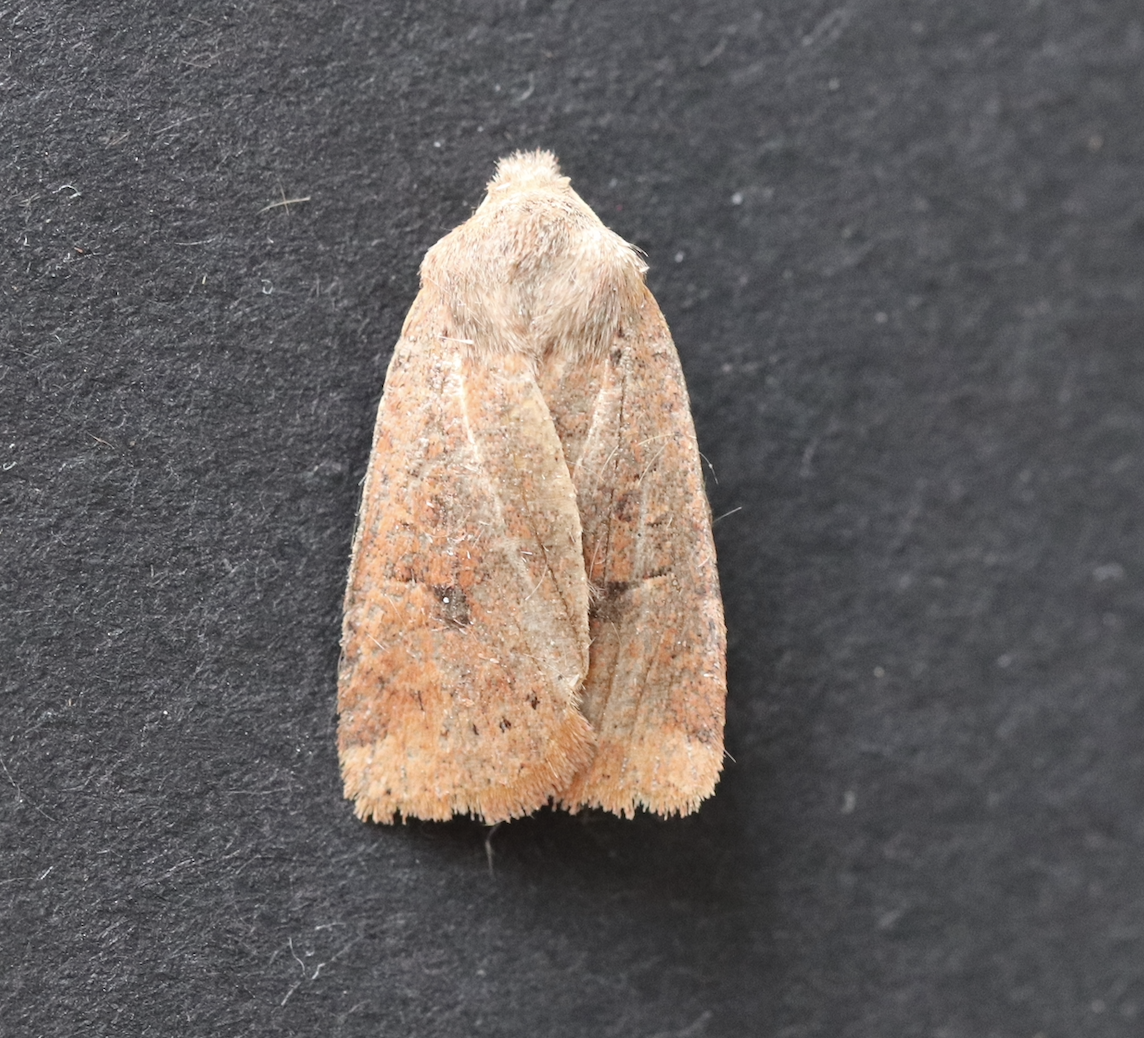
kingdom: Animalia
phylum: Arthropoda
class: Insecta
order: Lepidoptera
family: Noctuidae
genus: Conistra
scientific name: Conistra vaccinii
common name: Chestnut
